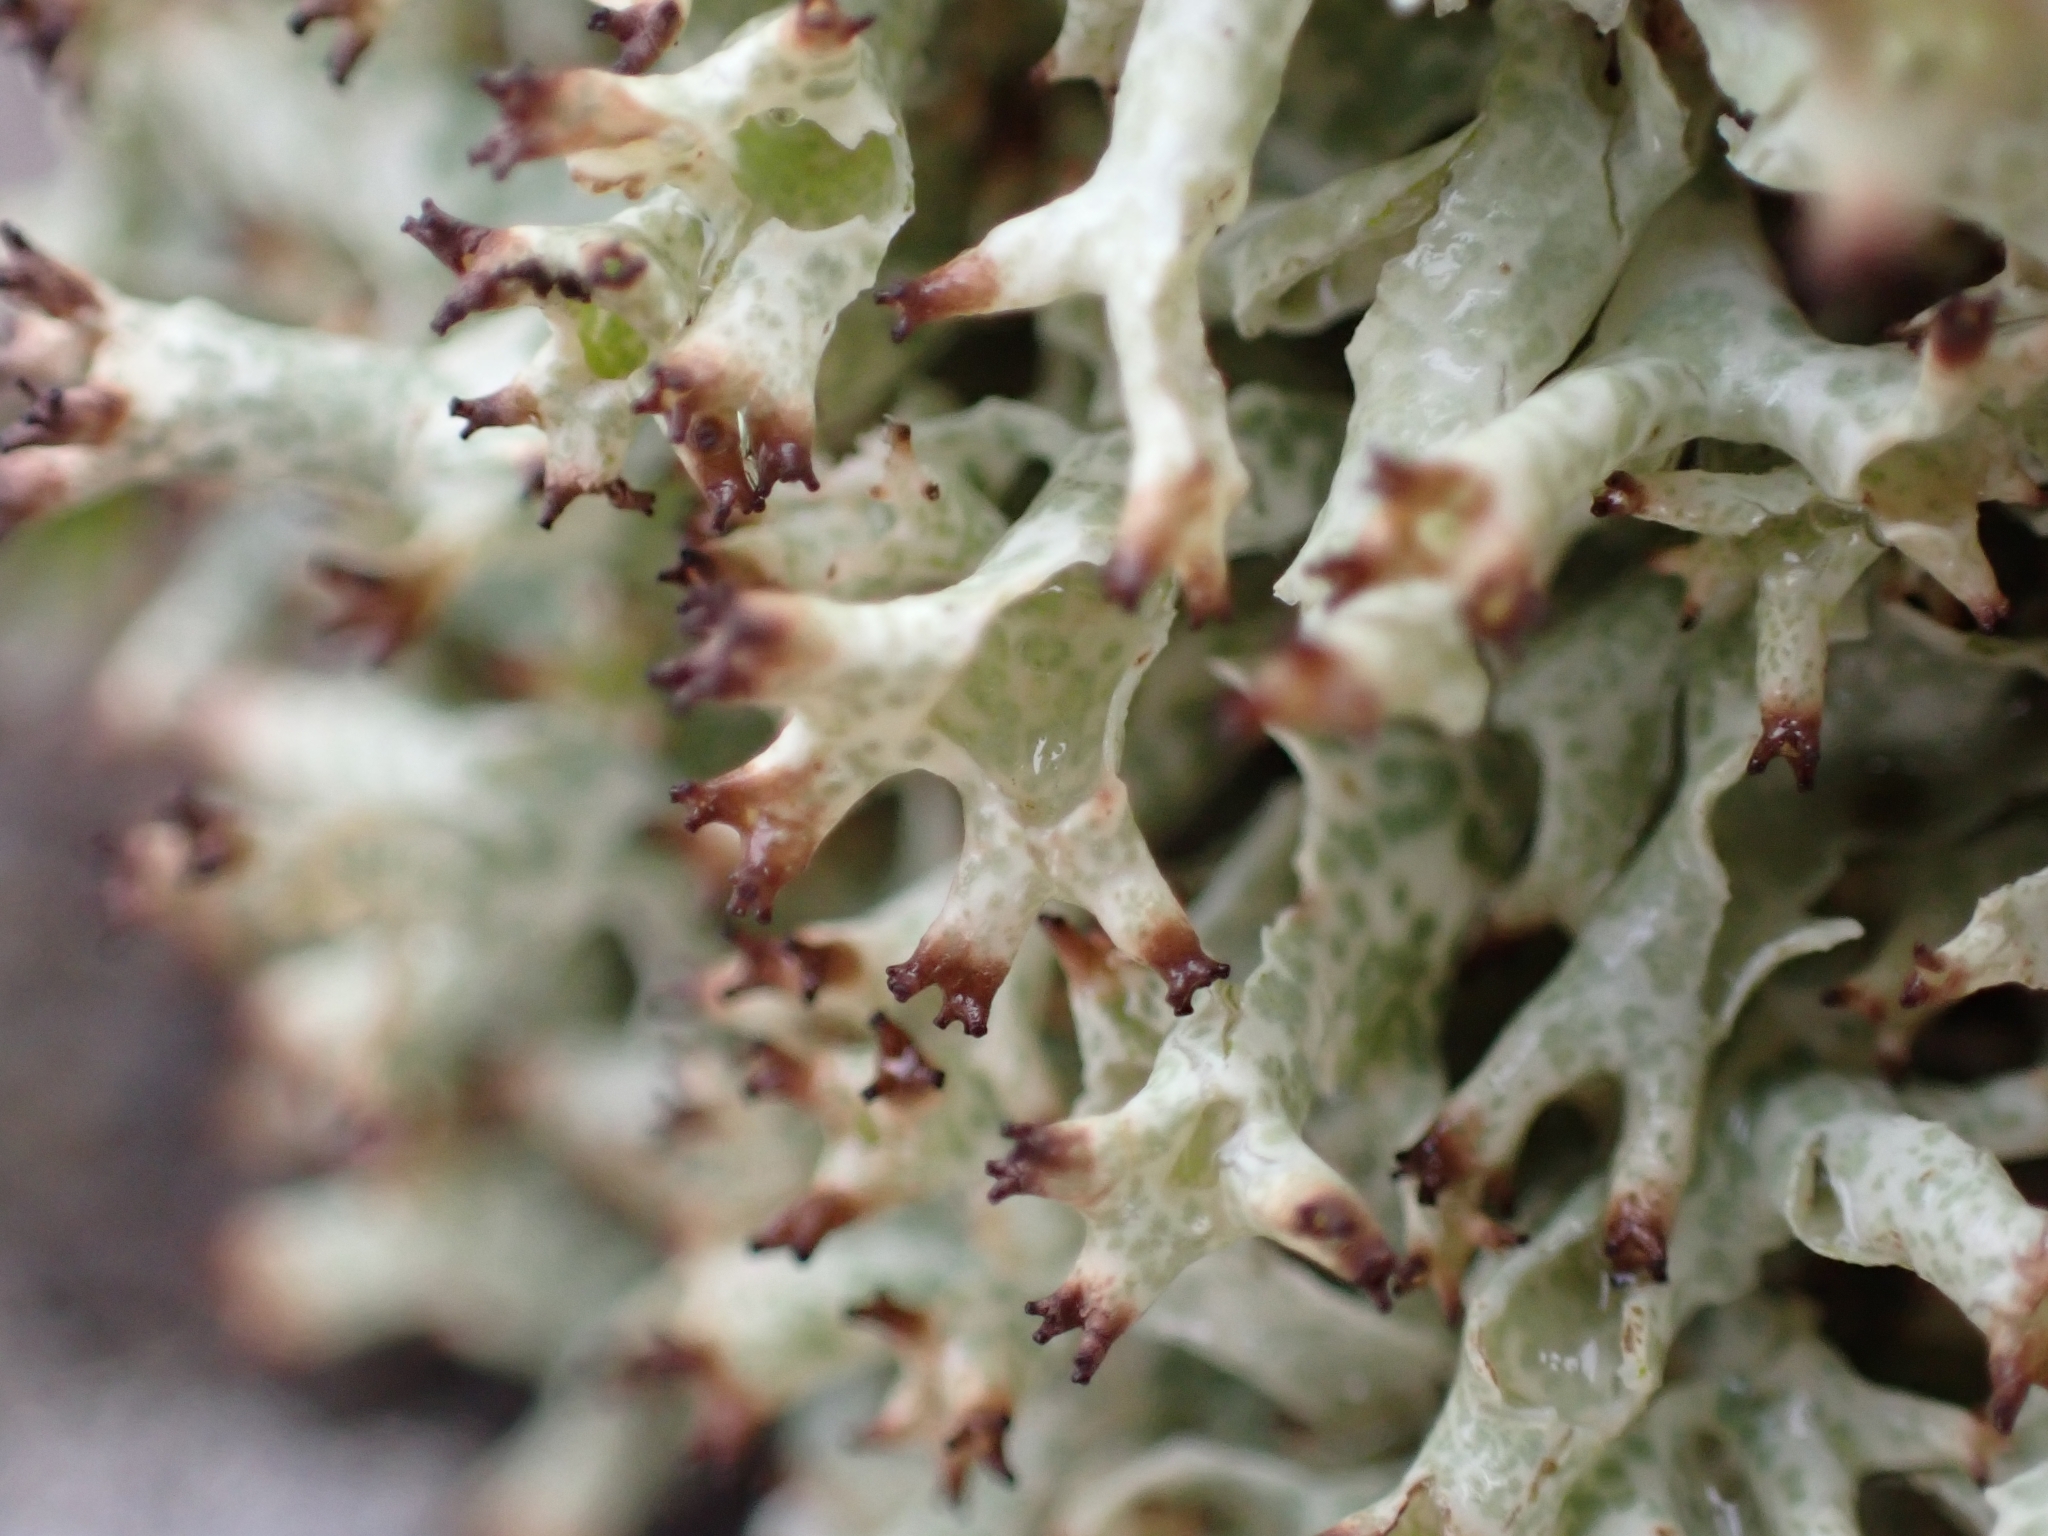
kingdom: Fungi
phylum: Ascomycota
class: Lecanoromycetes
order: Lecanorales
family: Cladoniaceae
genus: Cladonia
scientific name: Cladonia uncialis
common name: Thorn lichen
